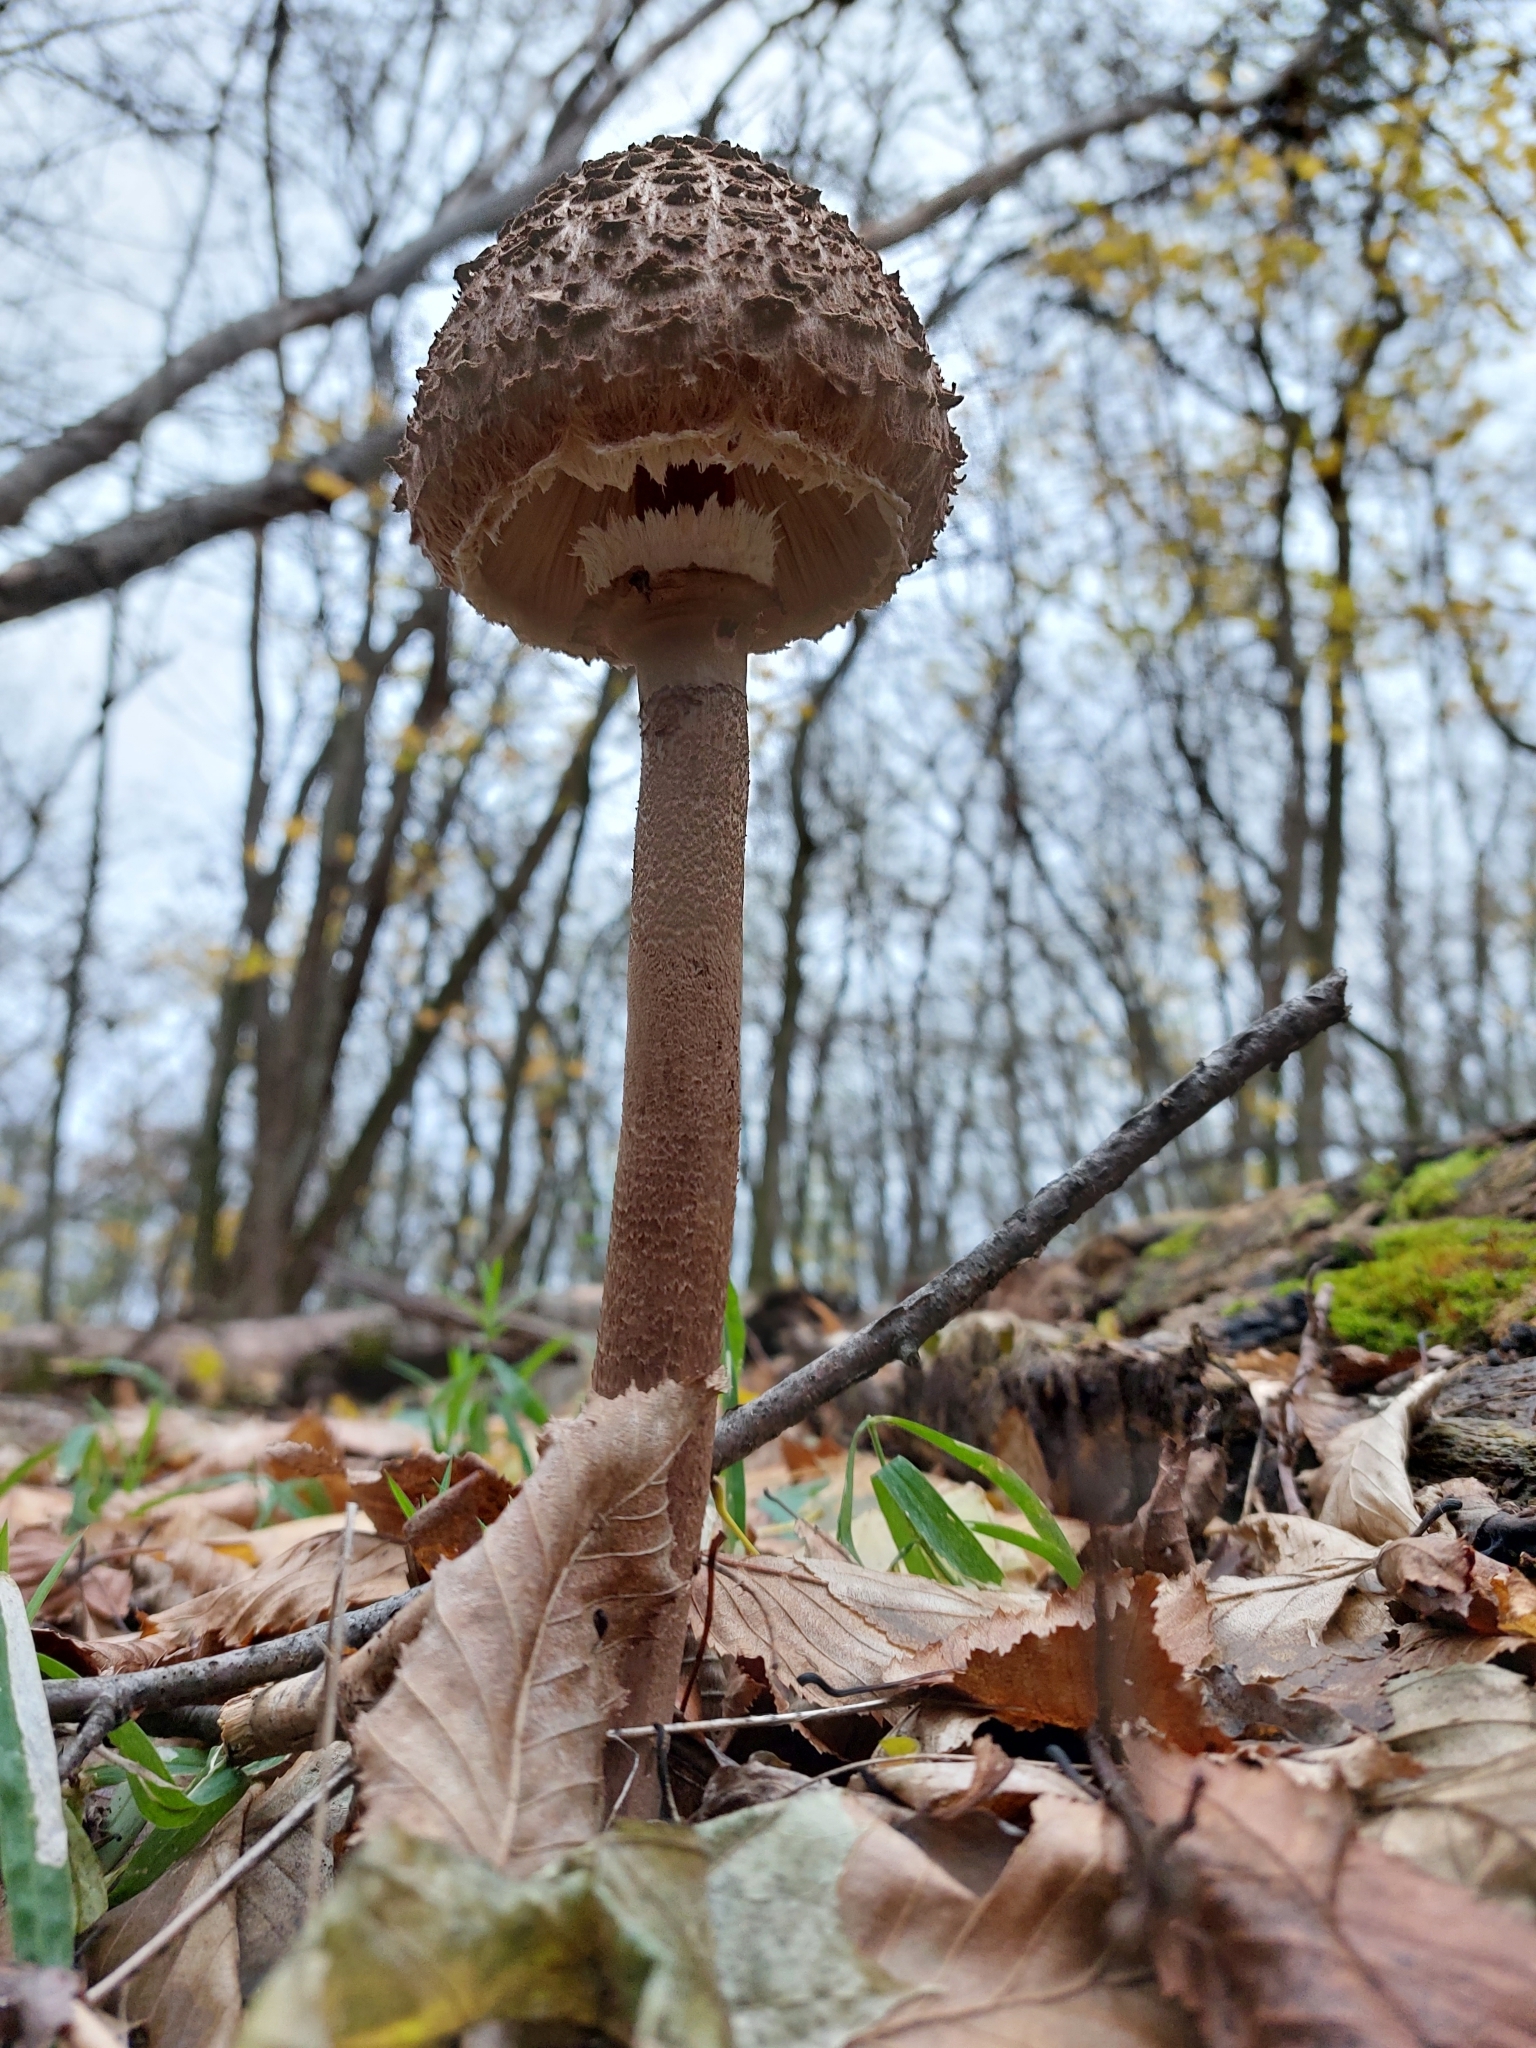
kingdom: Fungi
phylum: Basidiomycota
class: Agaricomycetes
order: Agaricales
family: Agaricaceae
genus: Macrolepiota
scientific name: Macrolepiota procera
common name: Parasol
